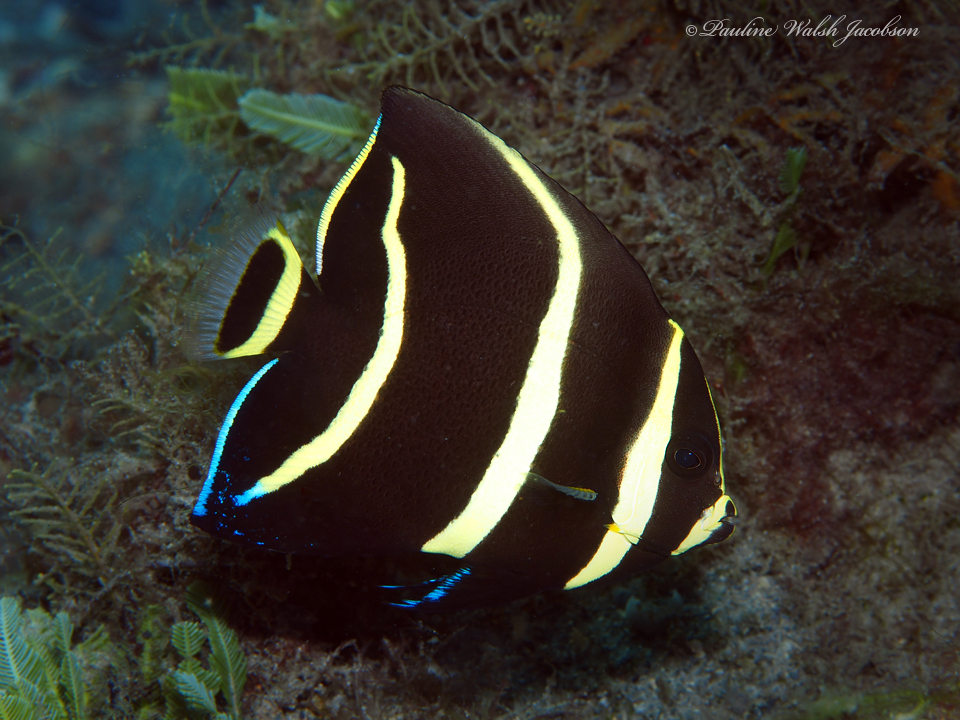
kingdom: Animalia
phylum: Chordata
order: Perciformes
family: Pomacanthidae
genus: Pomacanthus
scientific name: Pomacanthus arcuatus
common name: Gray angelfish
